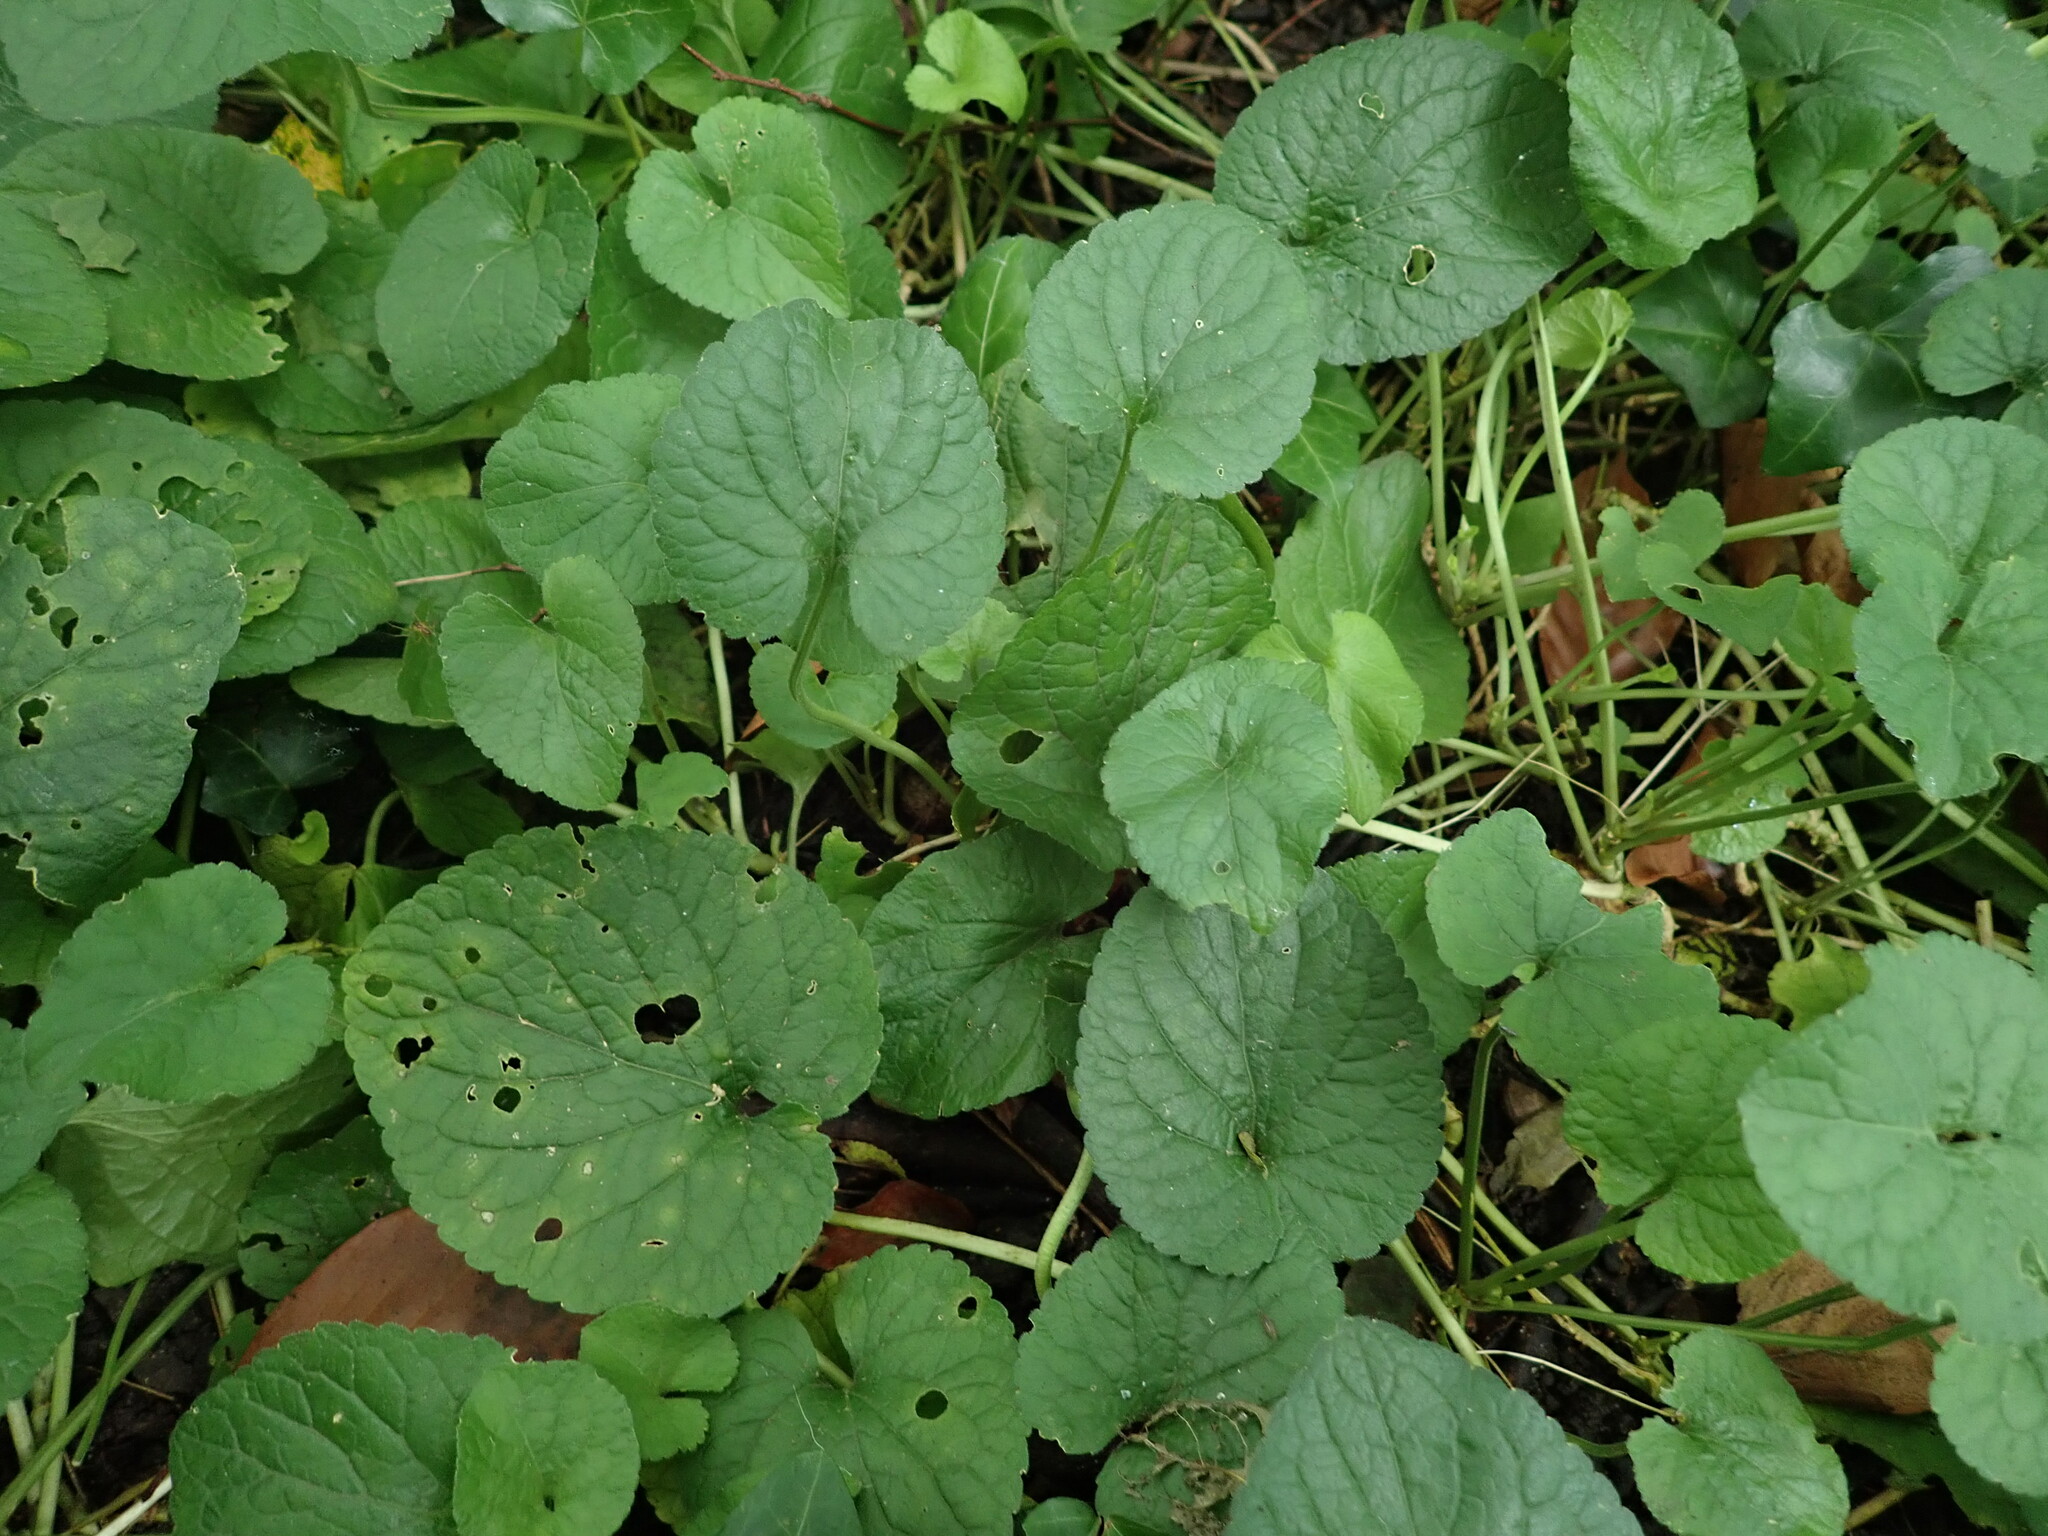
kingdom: Plantae
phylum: Tracheophyta
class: Magnoliopsida
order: Malpighiales
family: Violaceae
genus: Viola
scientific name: Viola odorata
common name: Sweet violet
